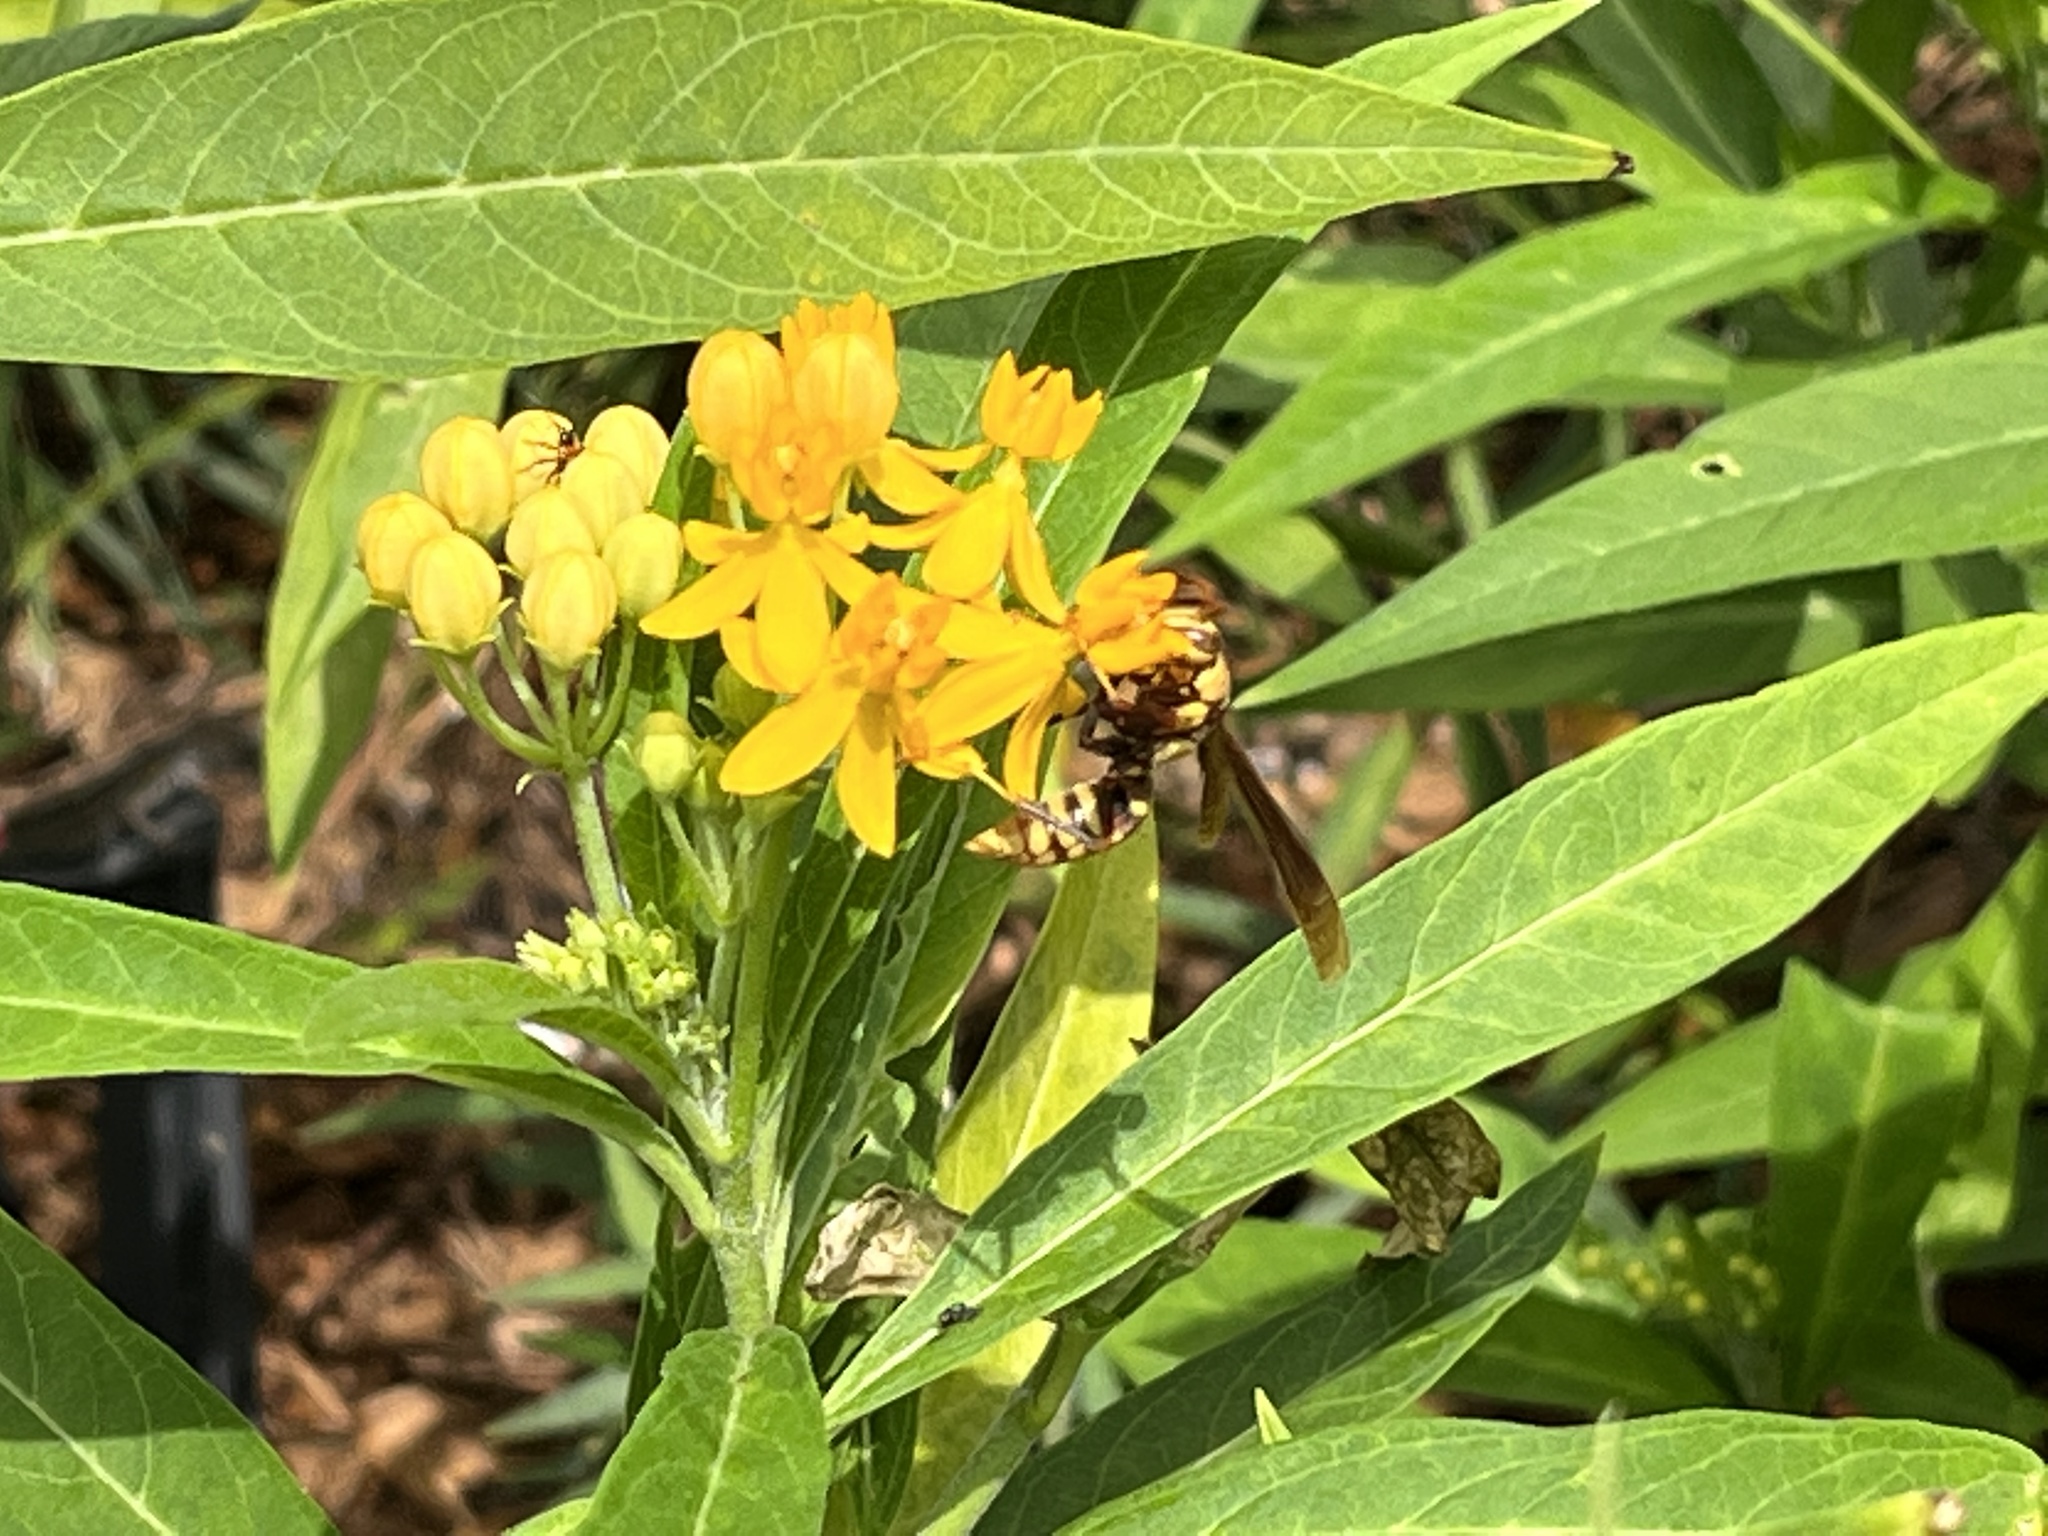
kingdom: Animalia
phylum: Arthropoda
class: Insecta
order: Hymenoptera
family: Eumenidae
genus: Polistes
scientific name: Polistes major
